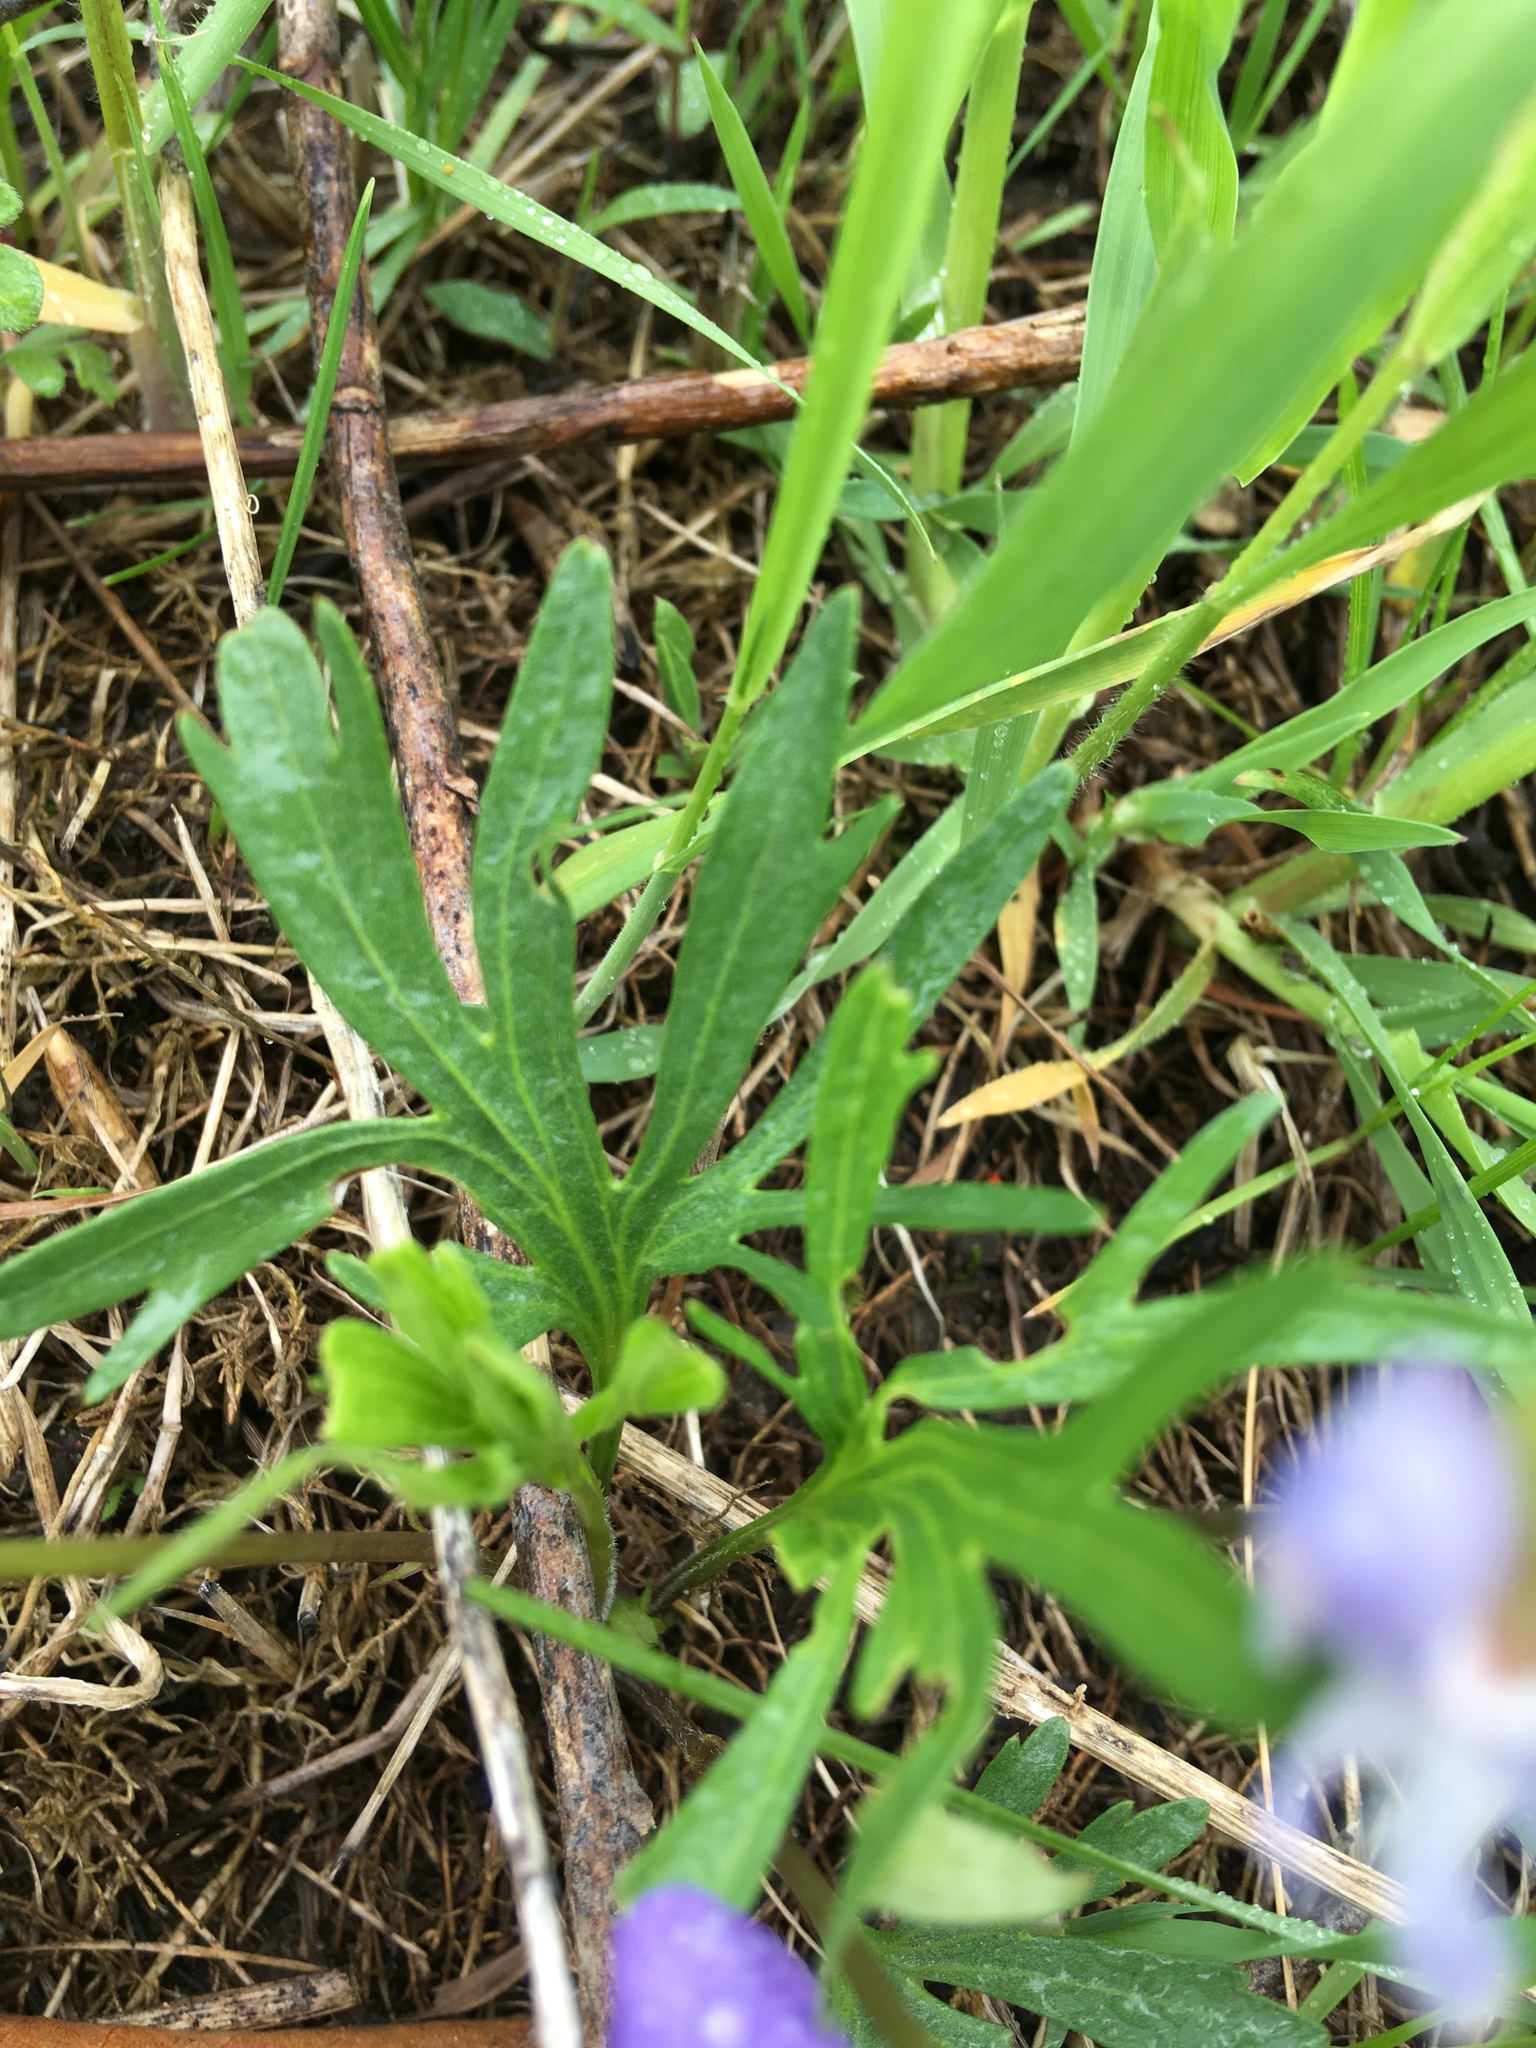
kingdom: Plantae
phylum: Tracheophyta
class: Magnoliopsida
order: Malpighiales
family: Violaceae
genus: Viola
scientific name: Viola pedatifida
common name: Prairie violet
